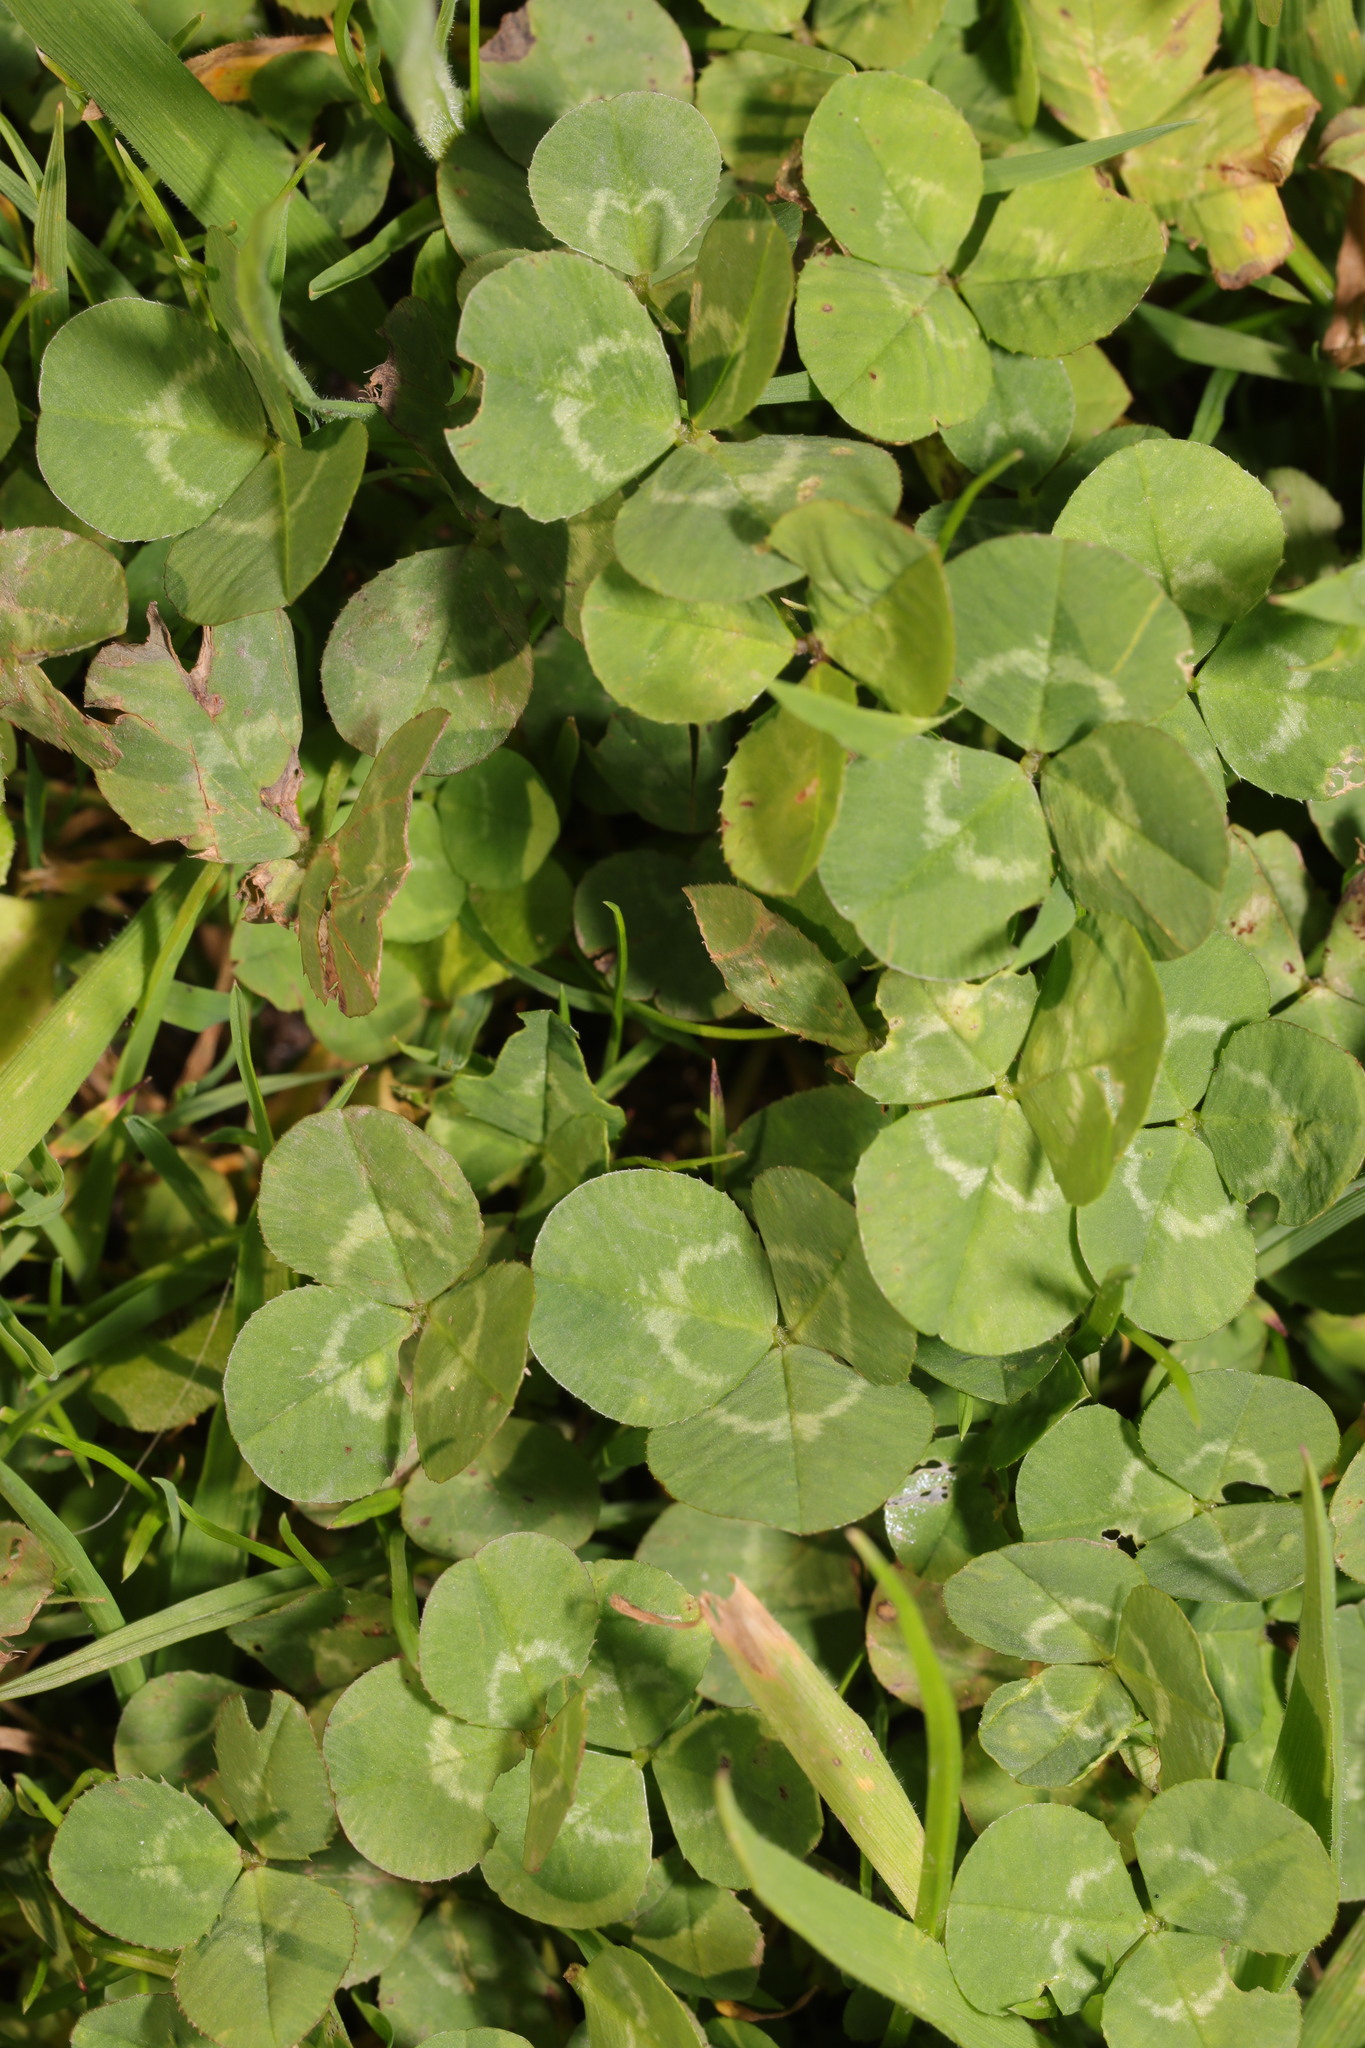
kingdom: Plantae
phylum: Tracheophyta
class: Magnoliopsida
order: Fabales
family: Fabaceae
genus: Trifolium
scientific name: Trifolium repens
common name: White clover
